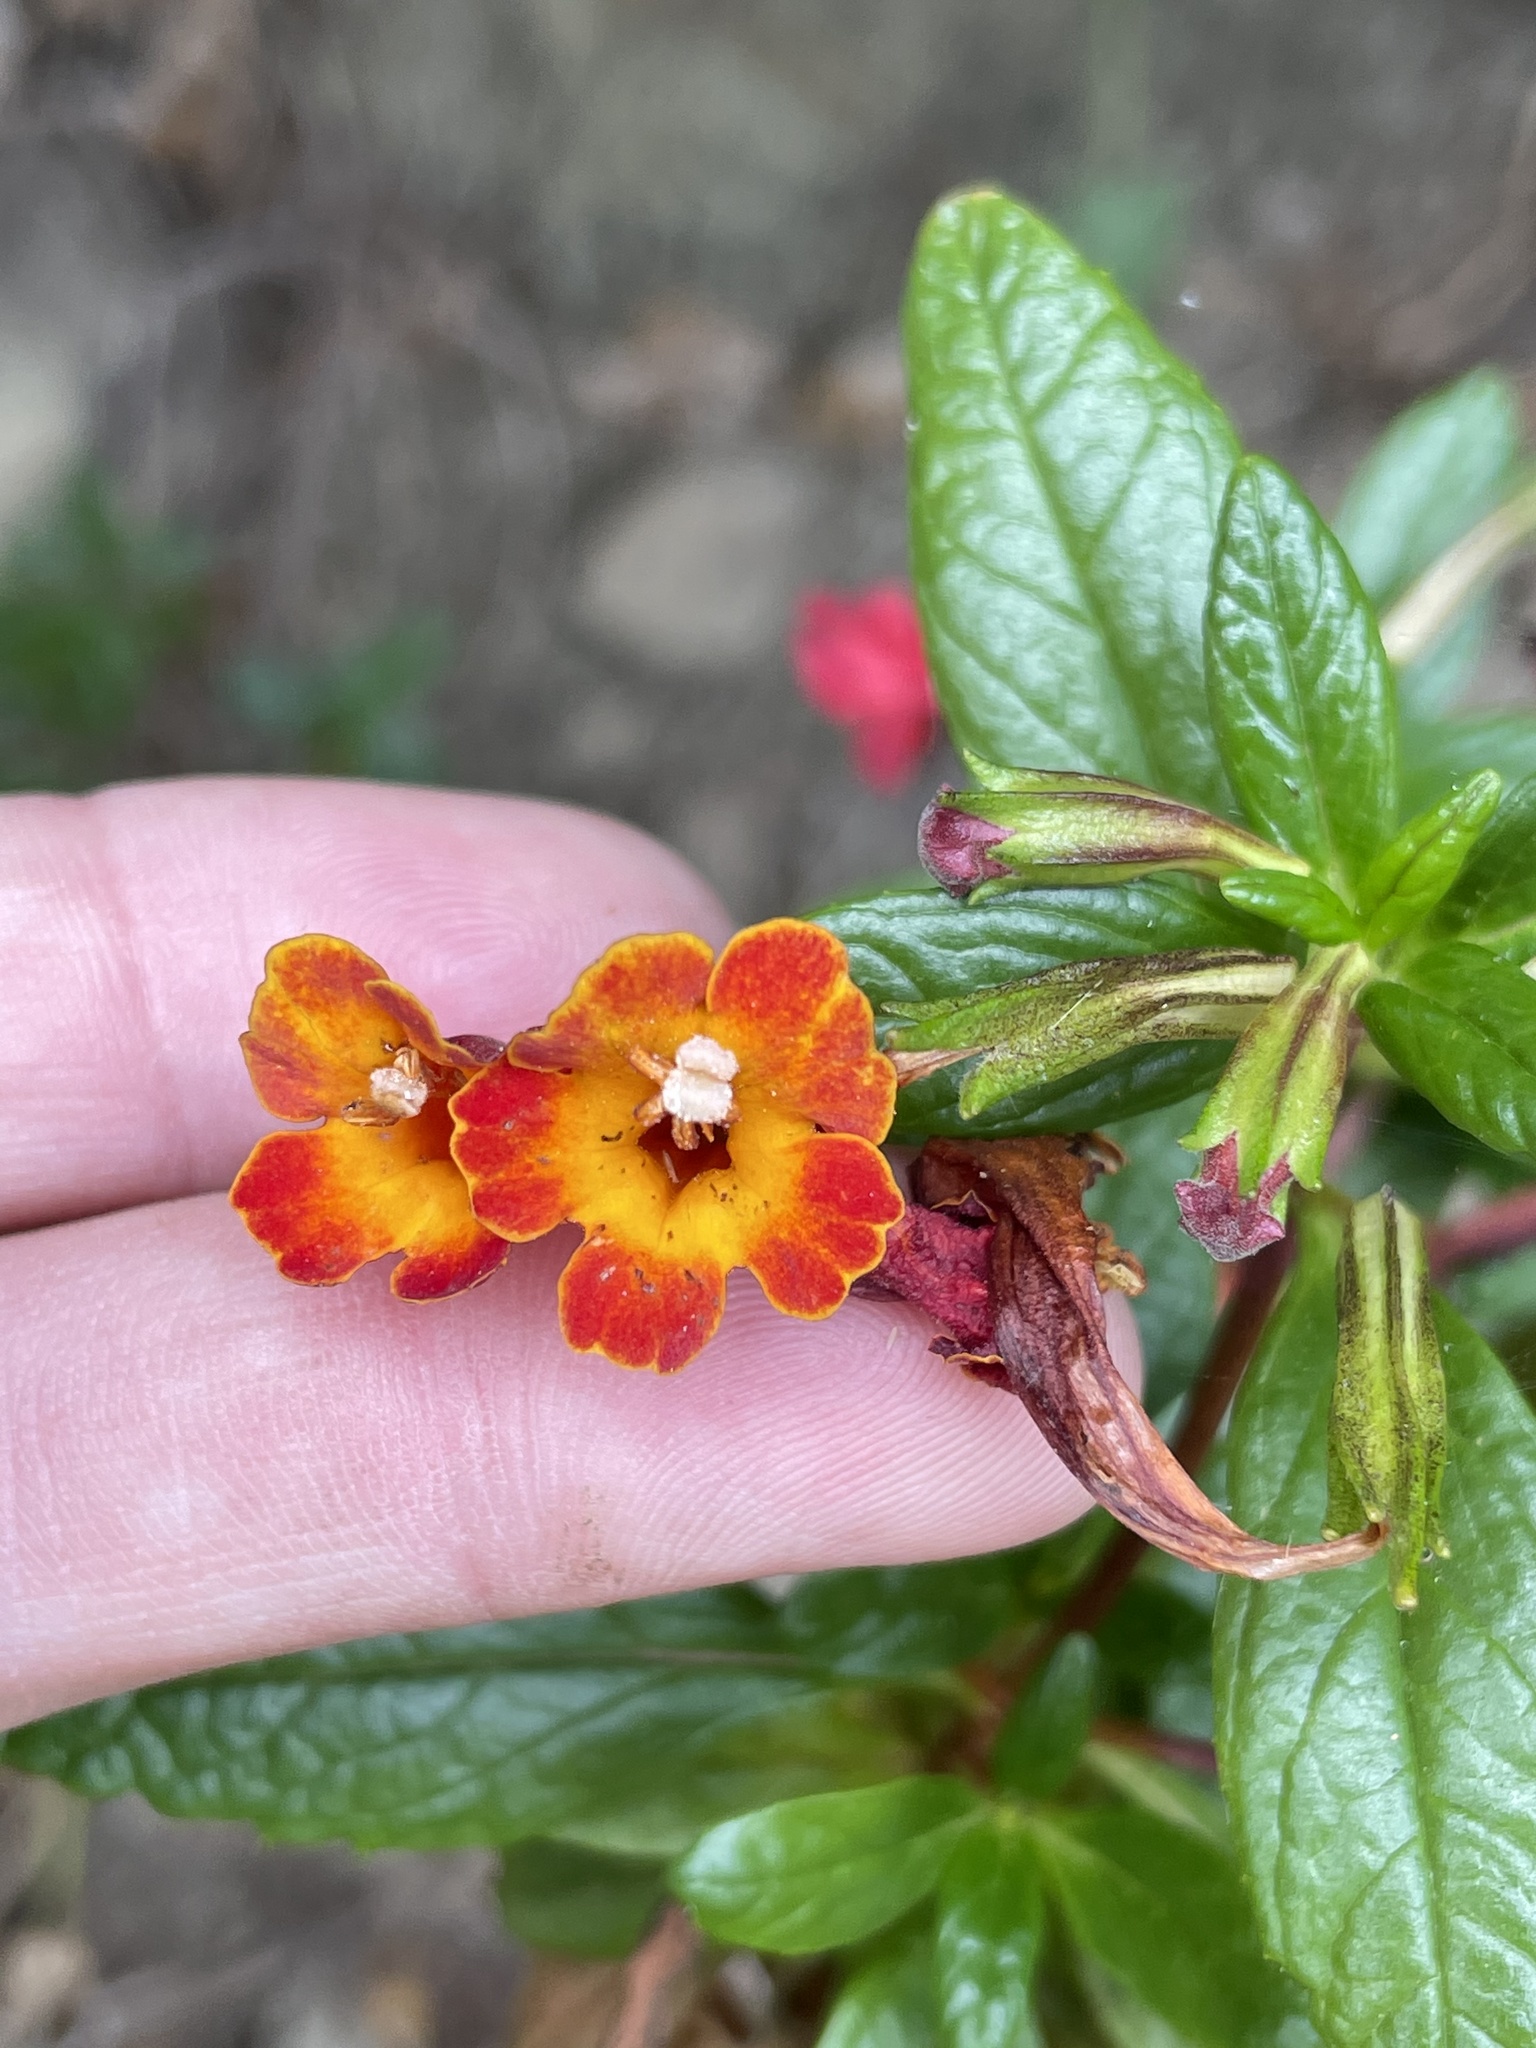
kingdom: Plantae
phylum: Tracheophyta
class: Magnoliopsida
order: Lamiales
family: Phrymaceae
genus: Diplacus
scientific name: Diplacus parviflorus
